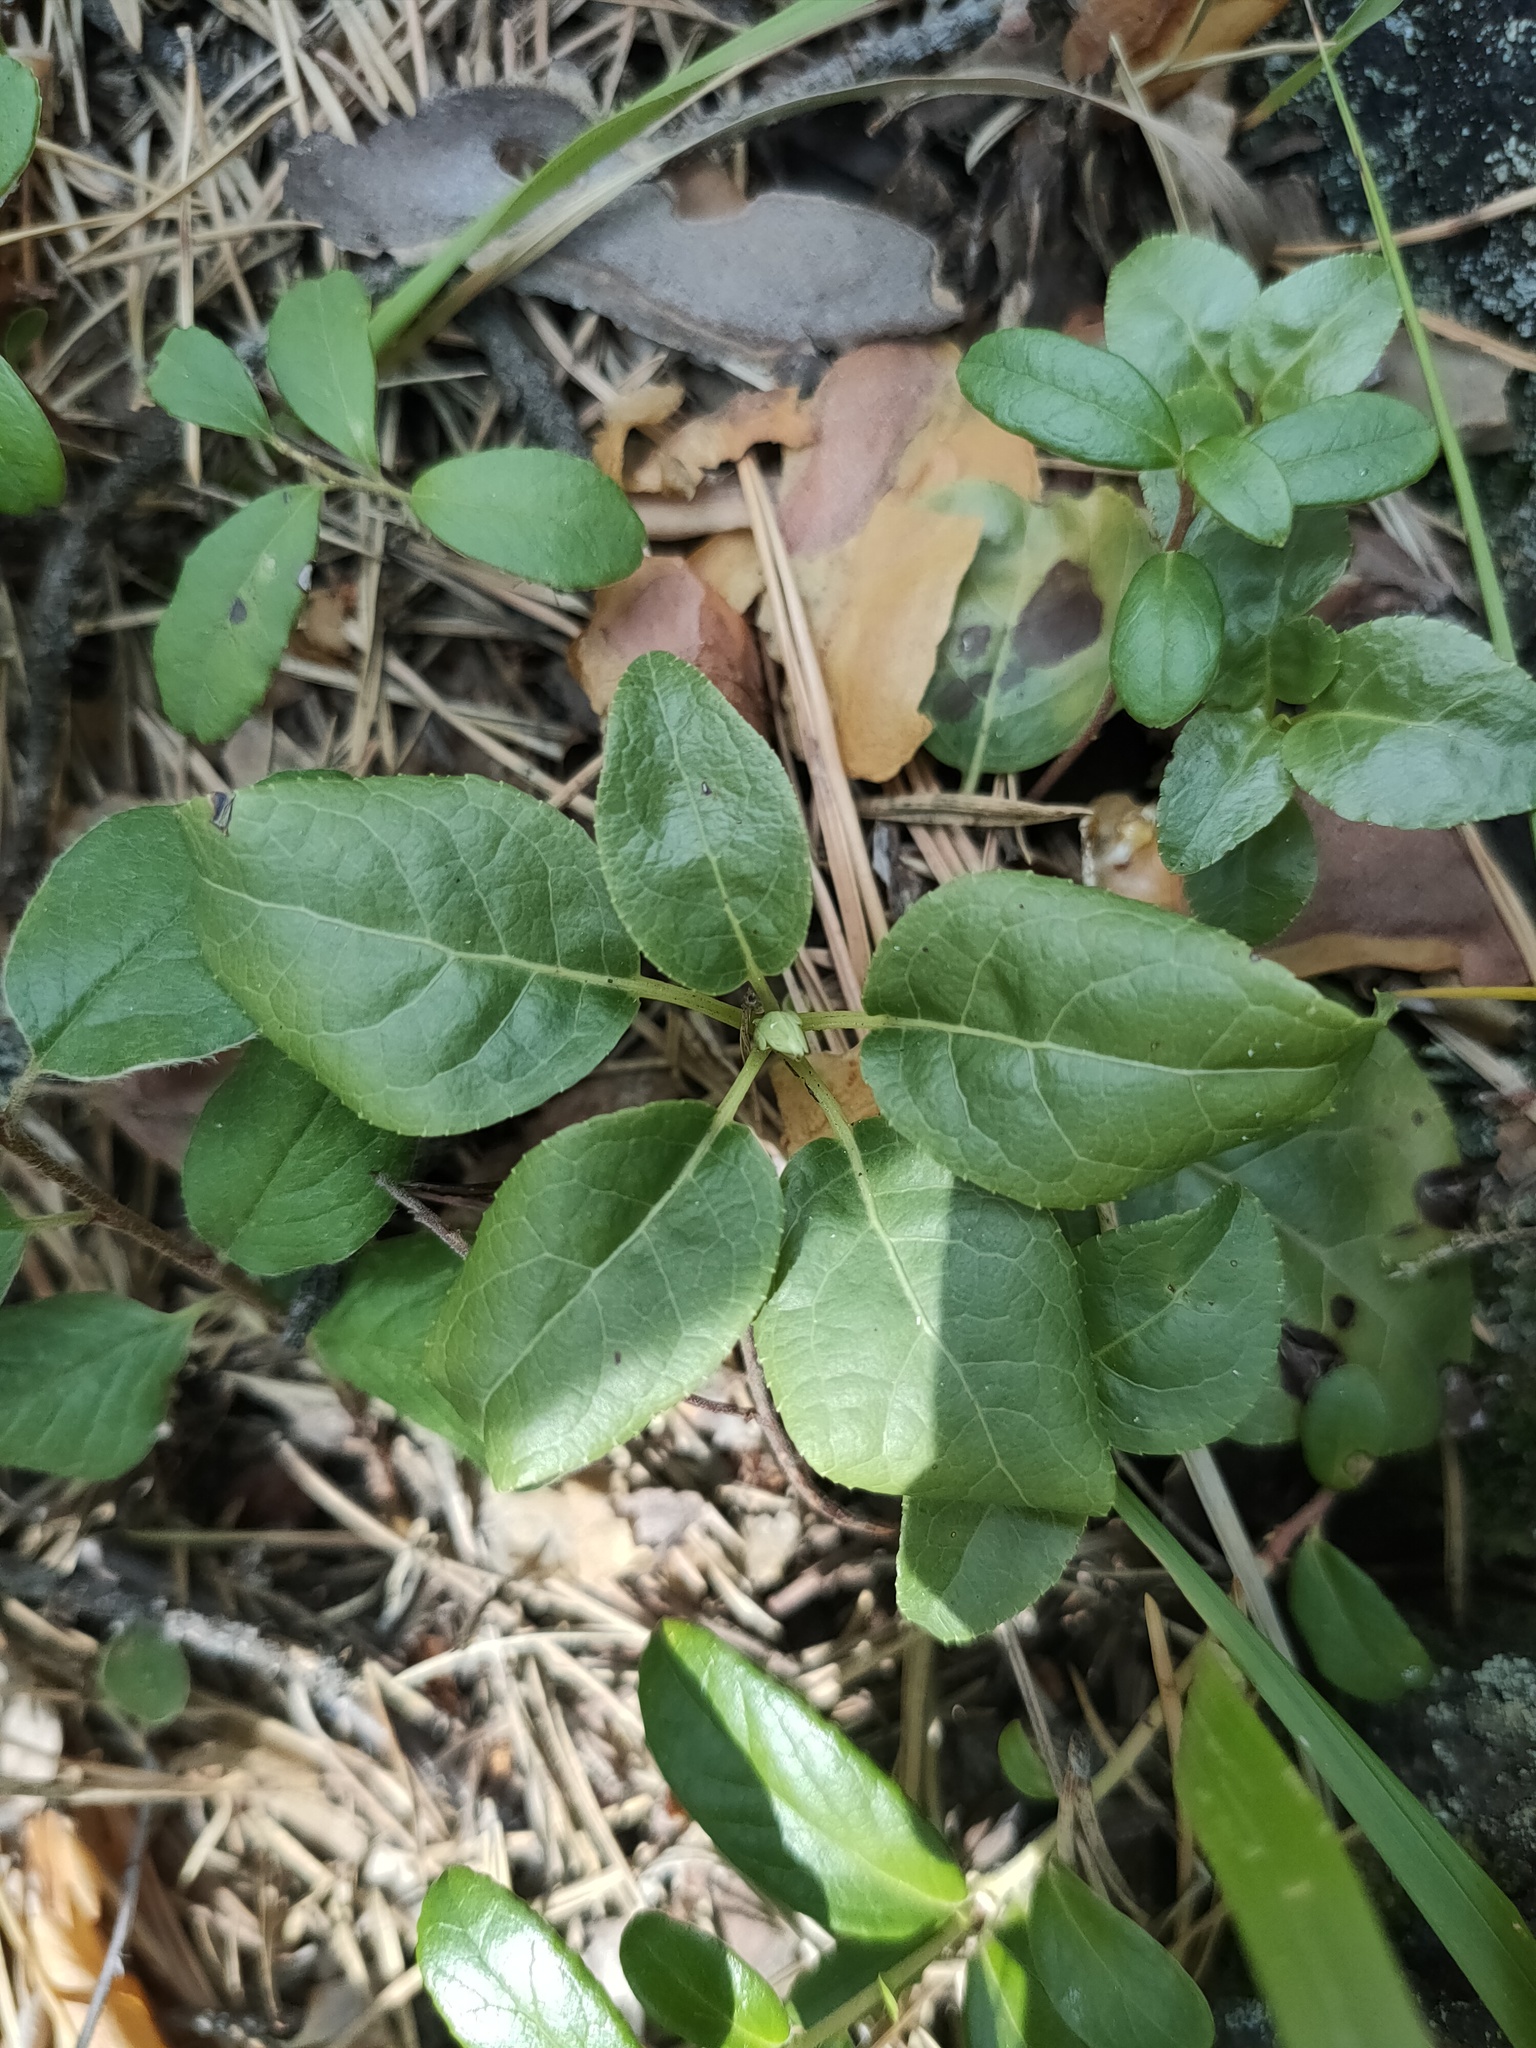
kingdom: Plantae
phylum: Tracheophyta
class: Magnoliopsida
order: Ericales
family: Ericaceae
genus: Orthilia
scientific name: Orthilia secunda
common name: One-sided orthilia
